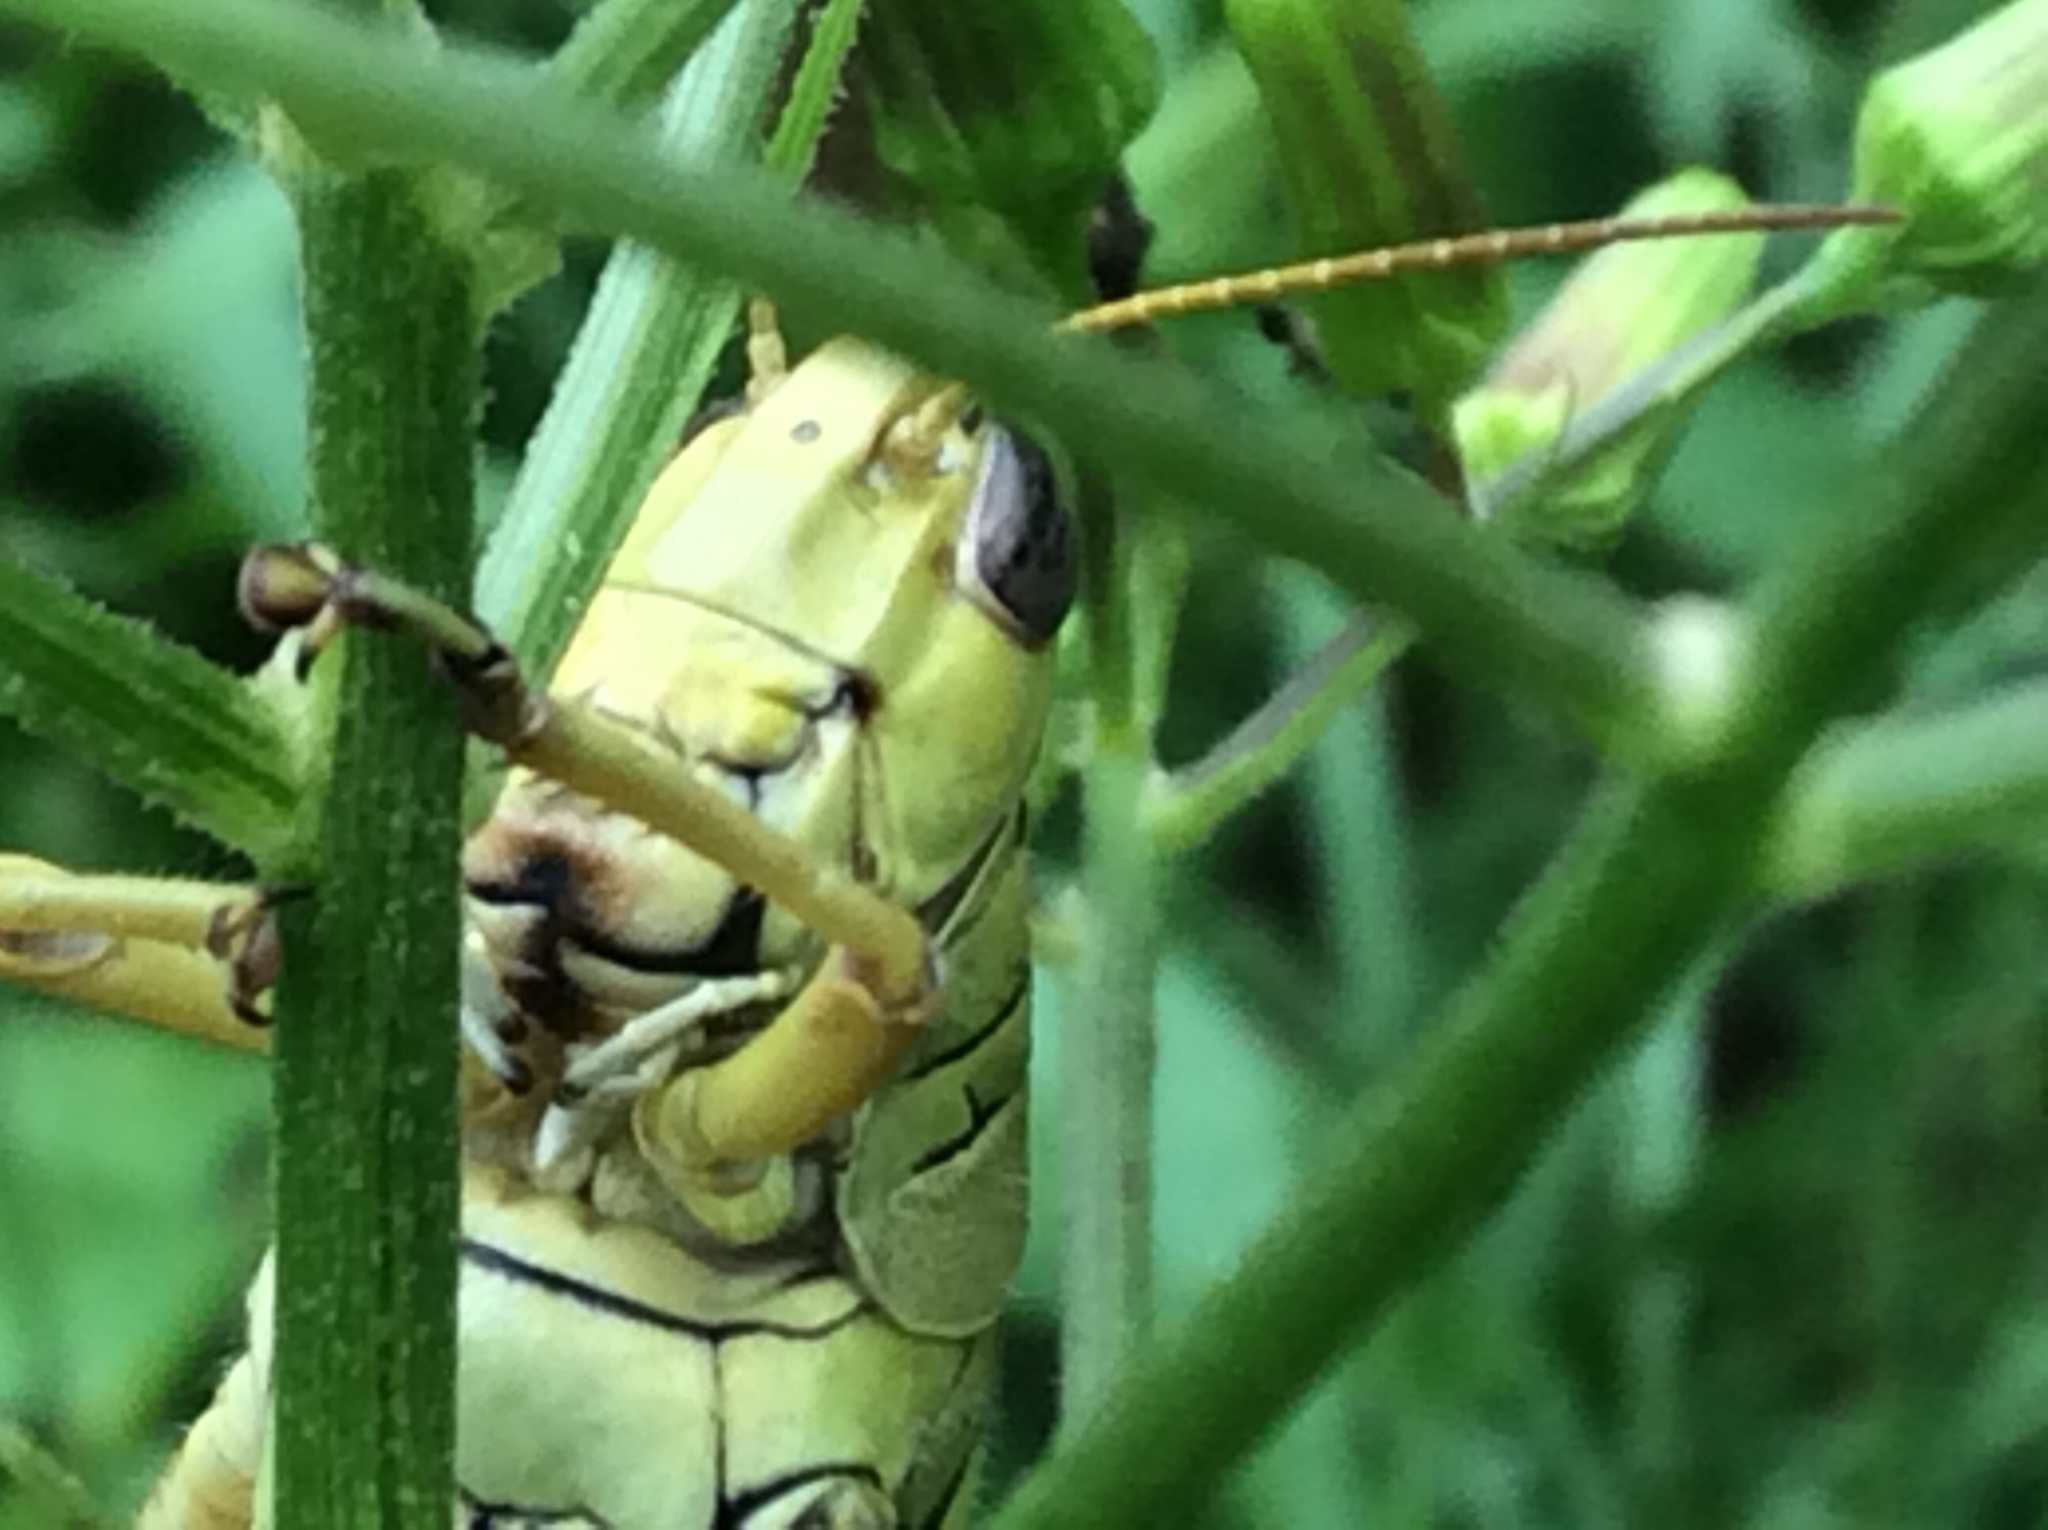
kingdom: Animalia
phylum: Arthropoda
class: Insecta
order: Orthoptera
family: Acrididae
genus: Melanoplus
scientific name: Melanoplus differentialis
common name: Differential grasshopper
